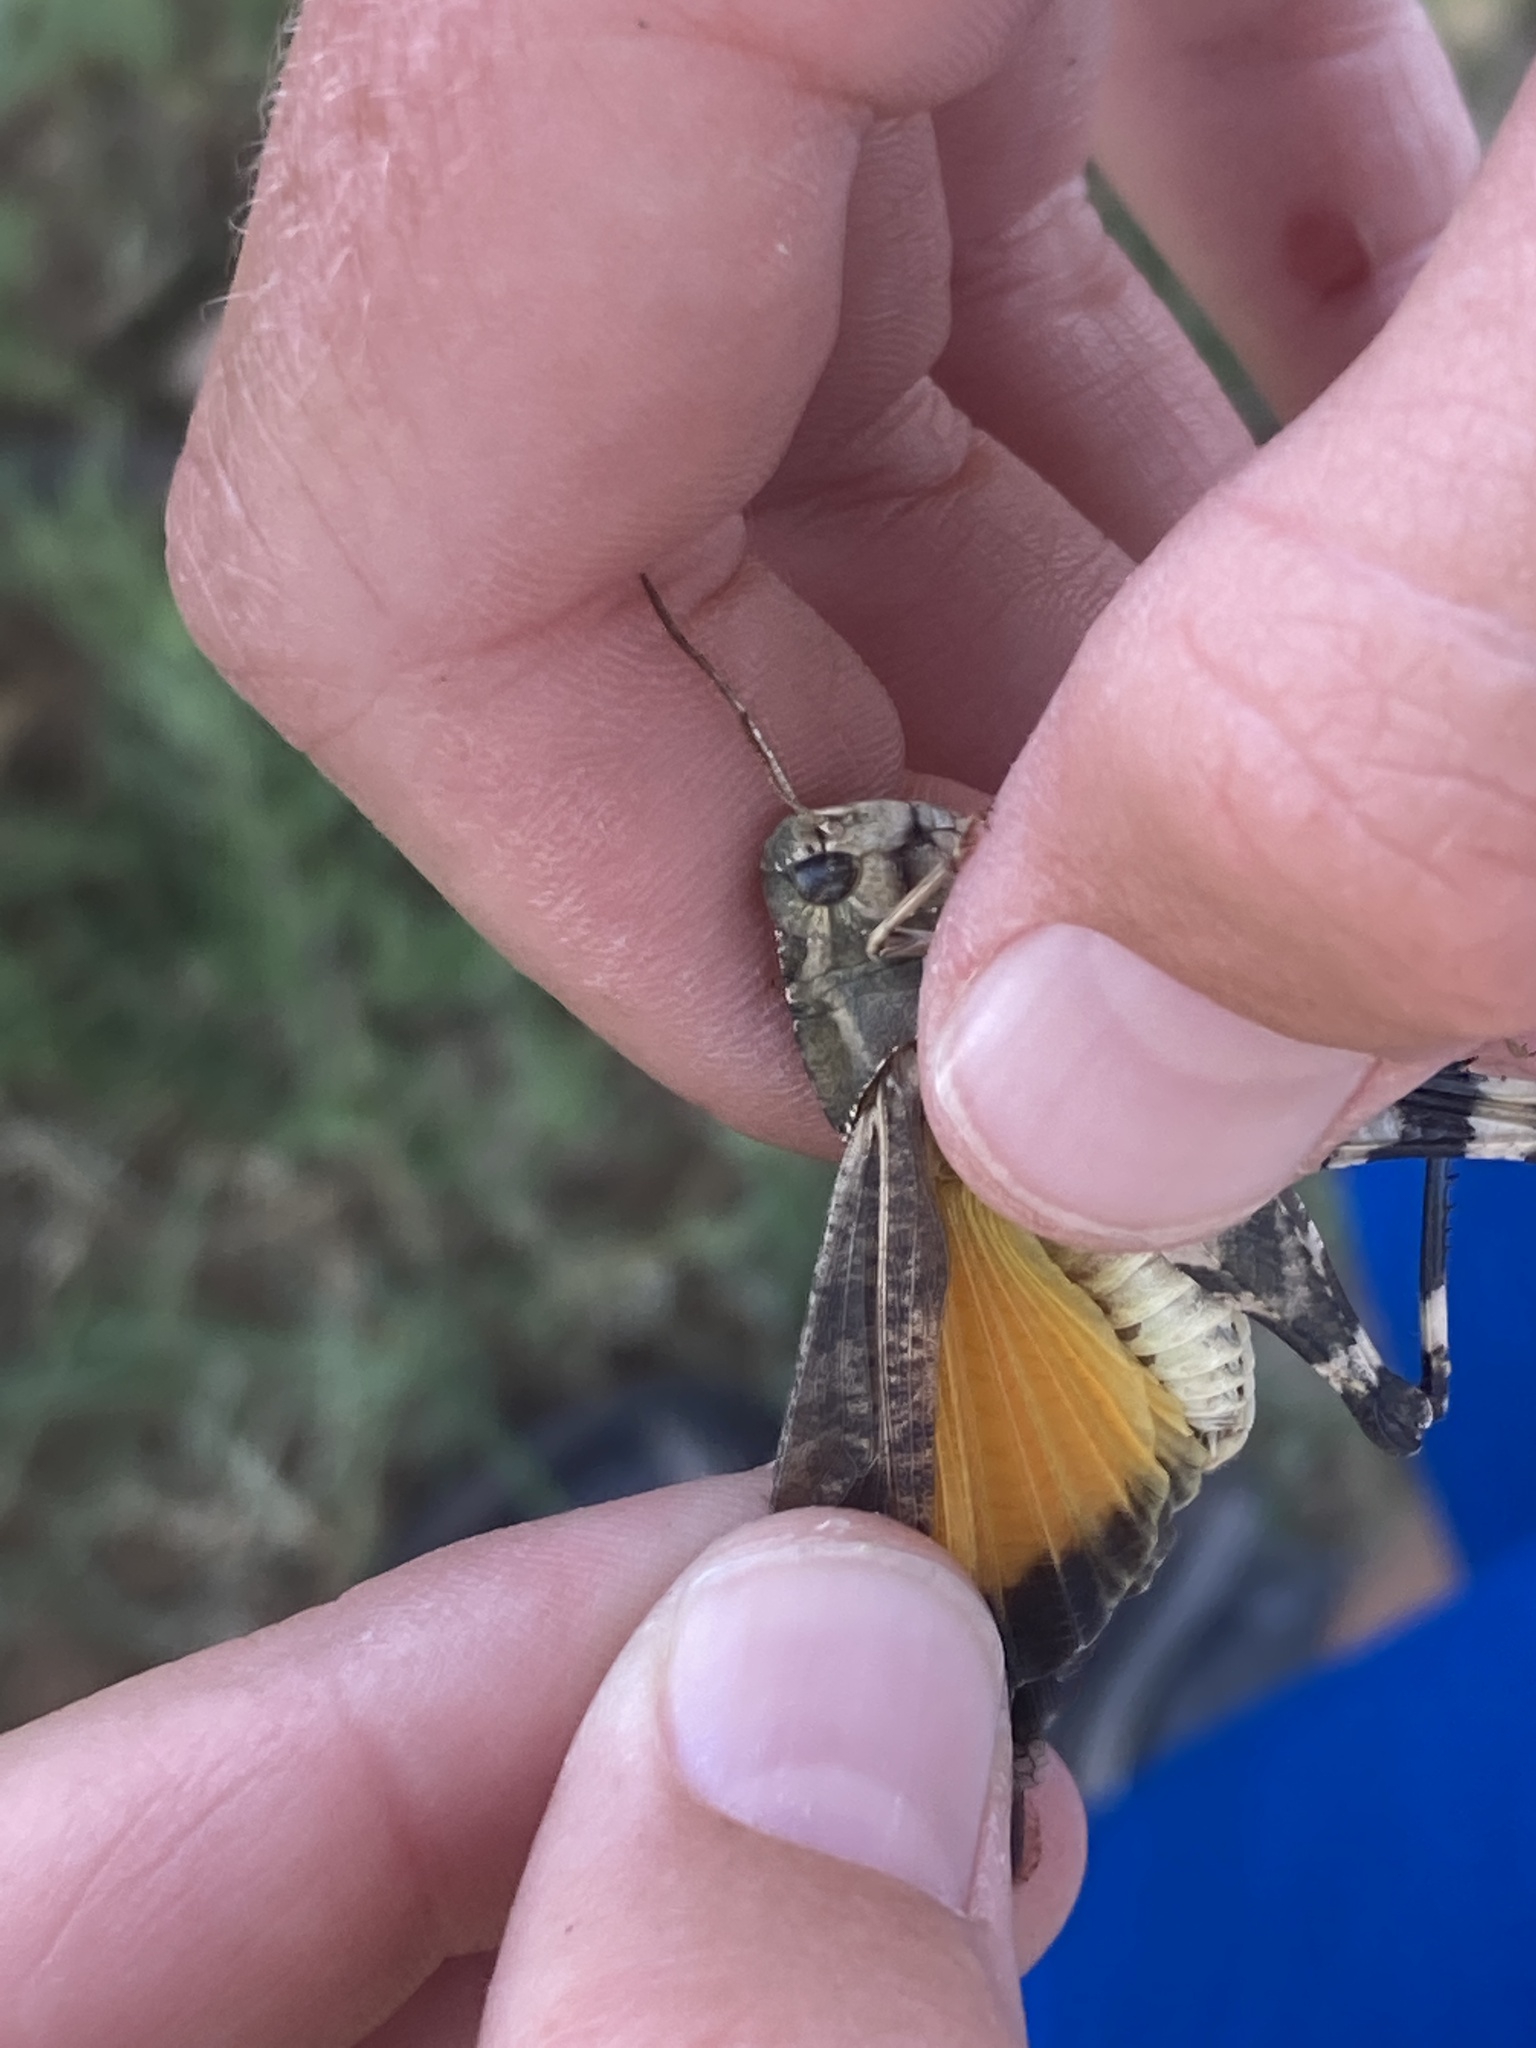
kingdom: Animalia
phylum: Arthropoda
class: Insecta
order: Orthoptera
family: Acrididae
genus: Arphia
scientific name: Arphia simplex
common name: Plains yellow-winged grasshopper
